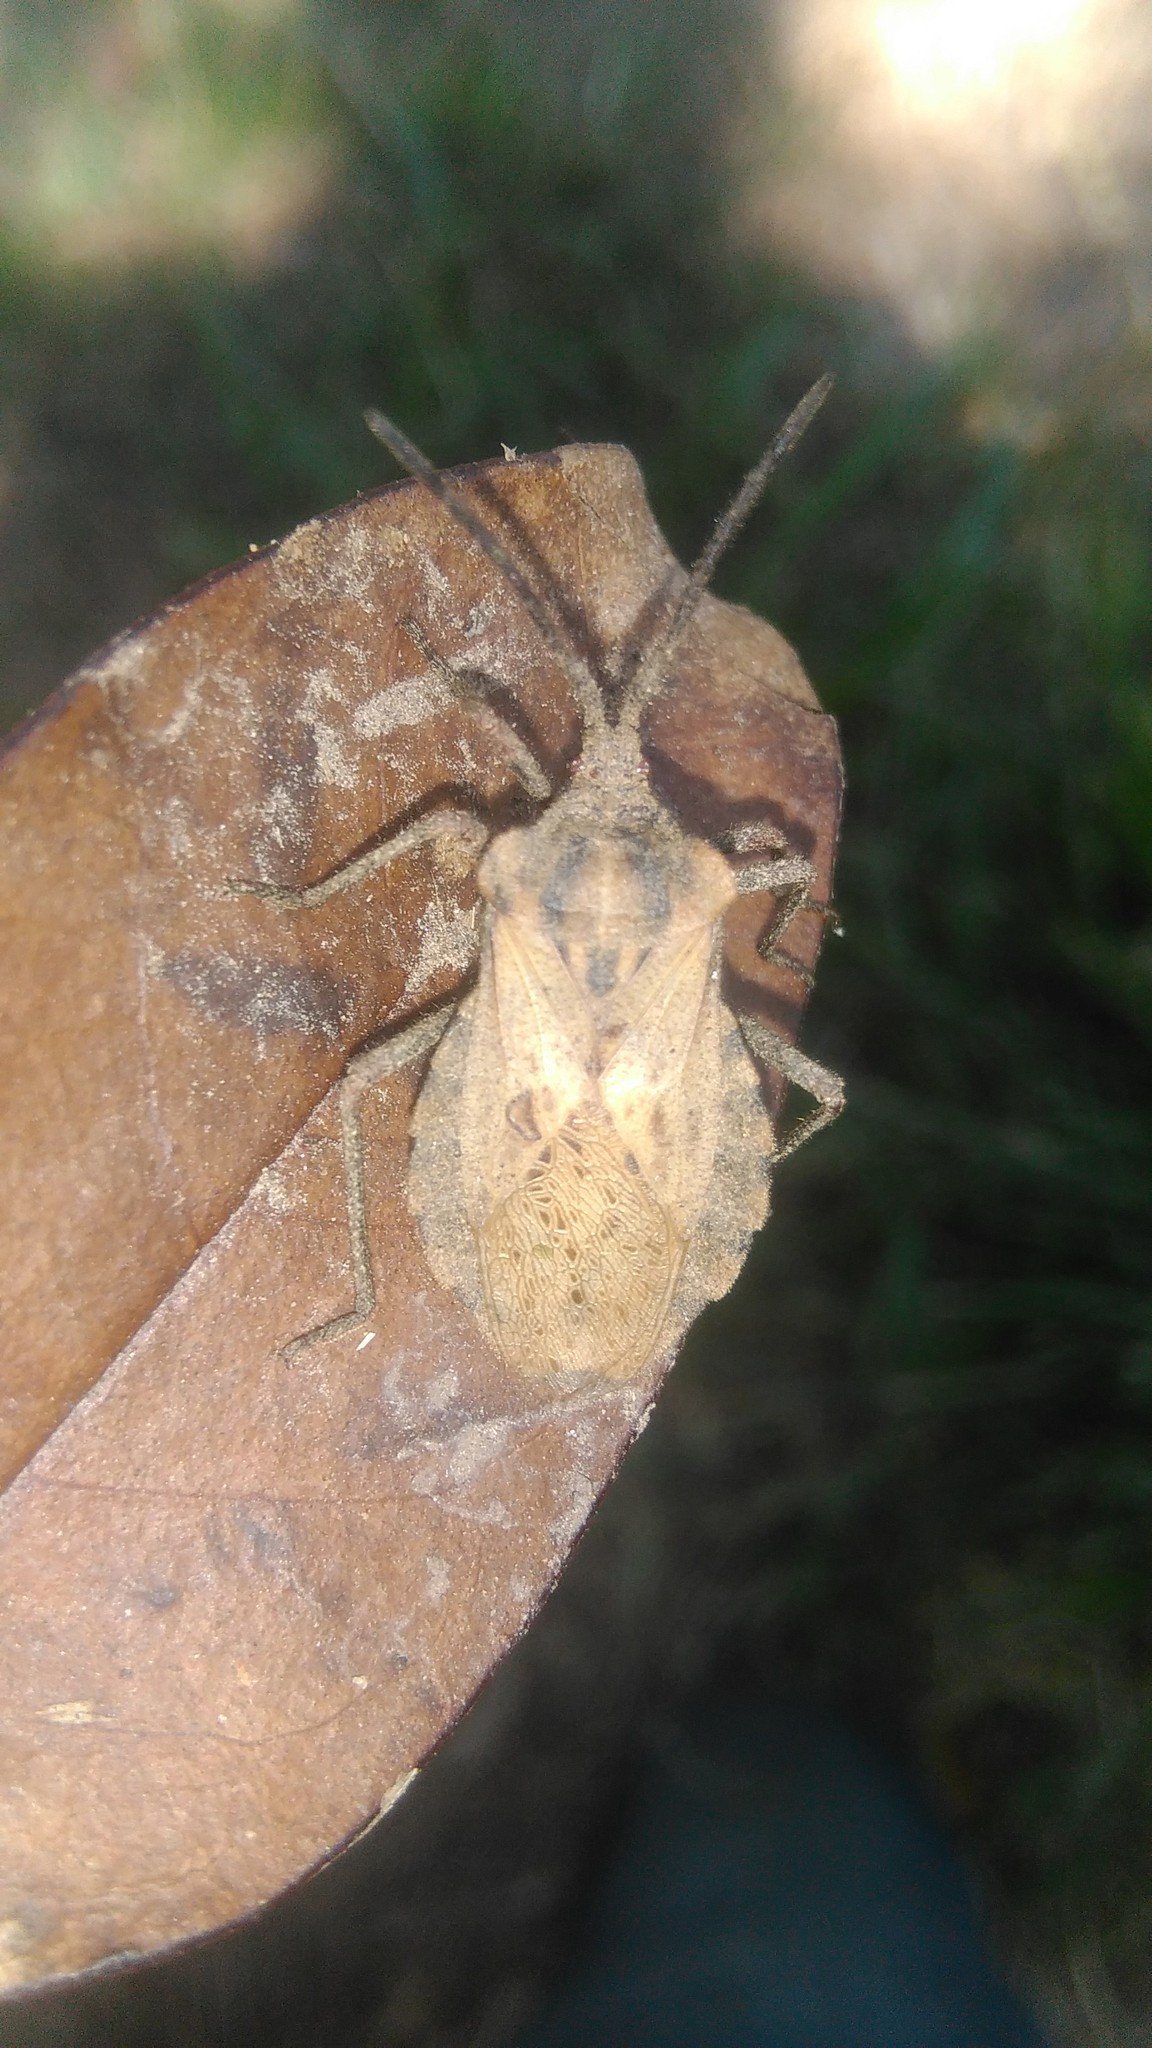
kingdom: Animalia
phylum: Arthropoda
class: Insecta
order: Hemiptera
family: Coreidae
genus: Spartocera
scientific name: Spartocera fusca
